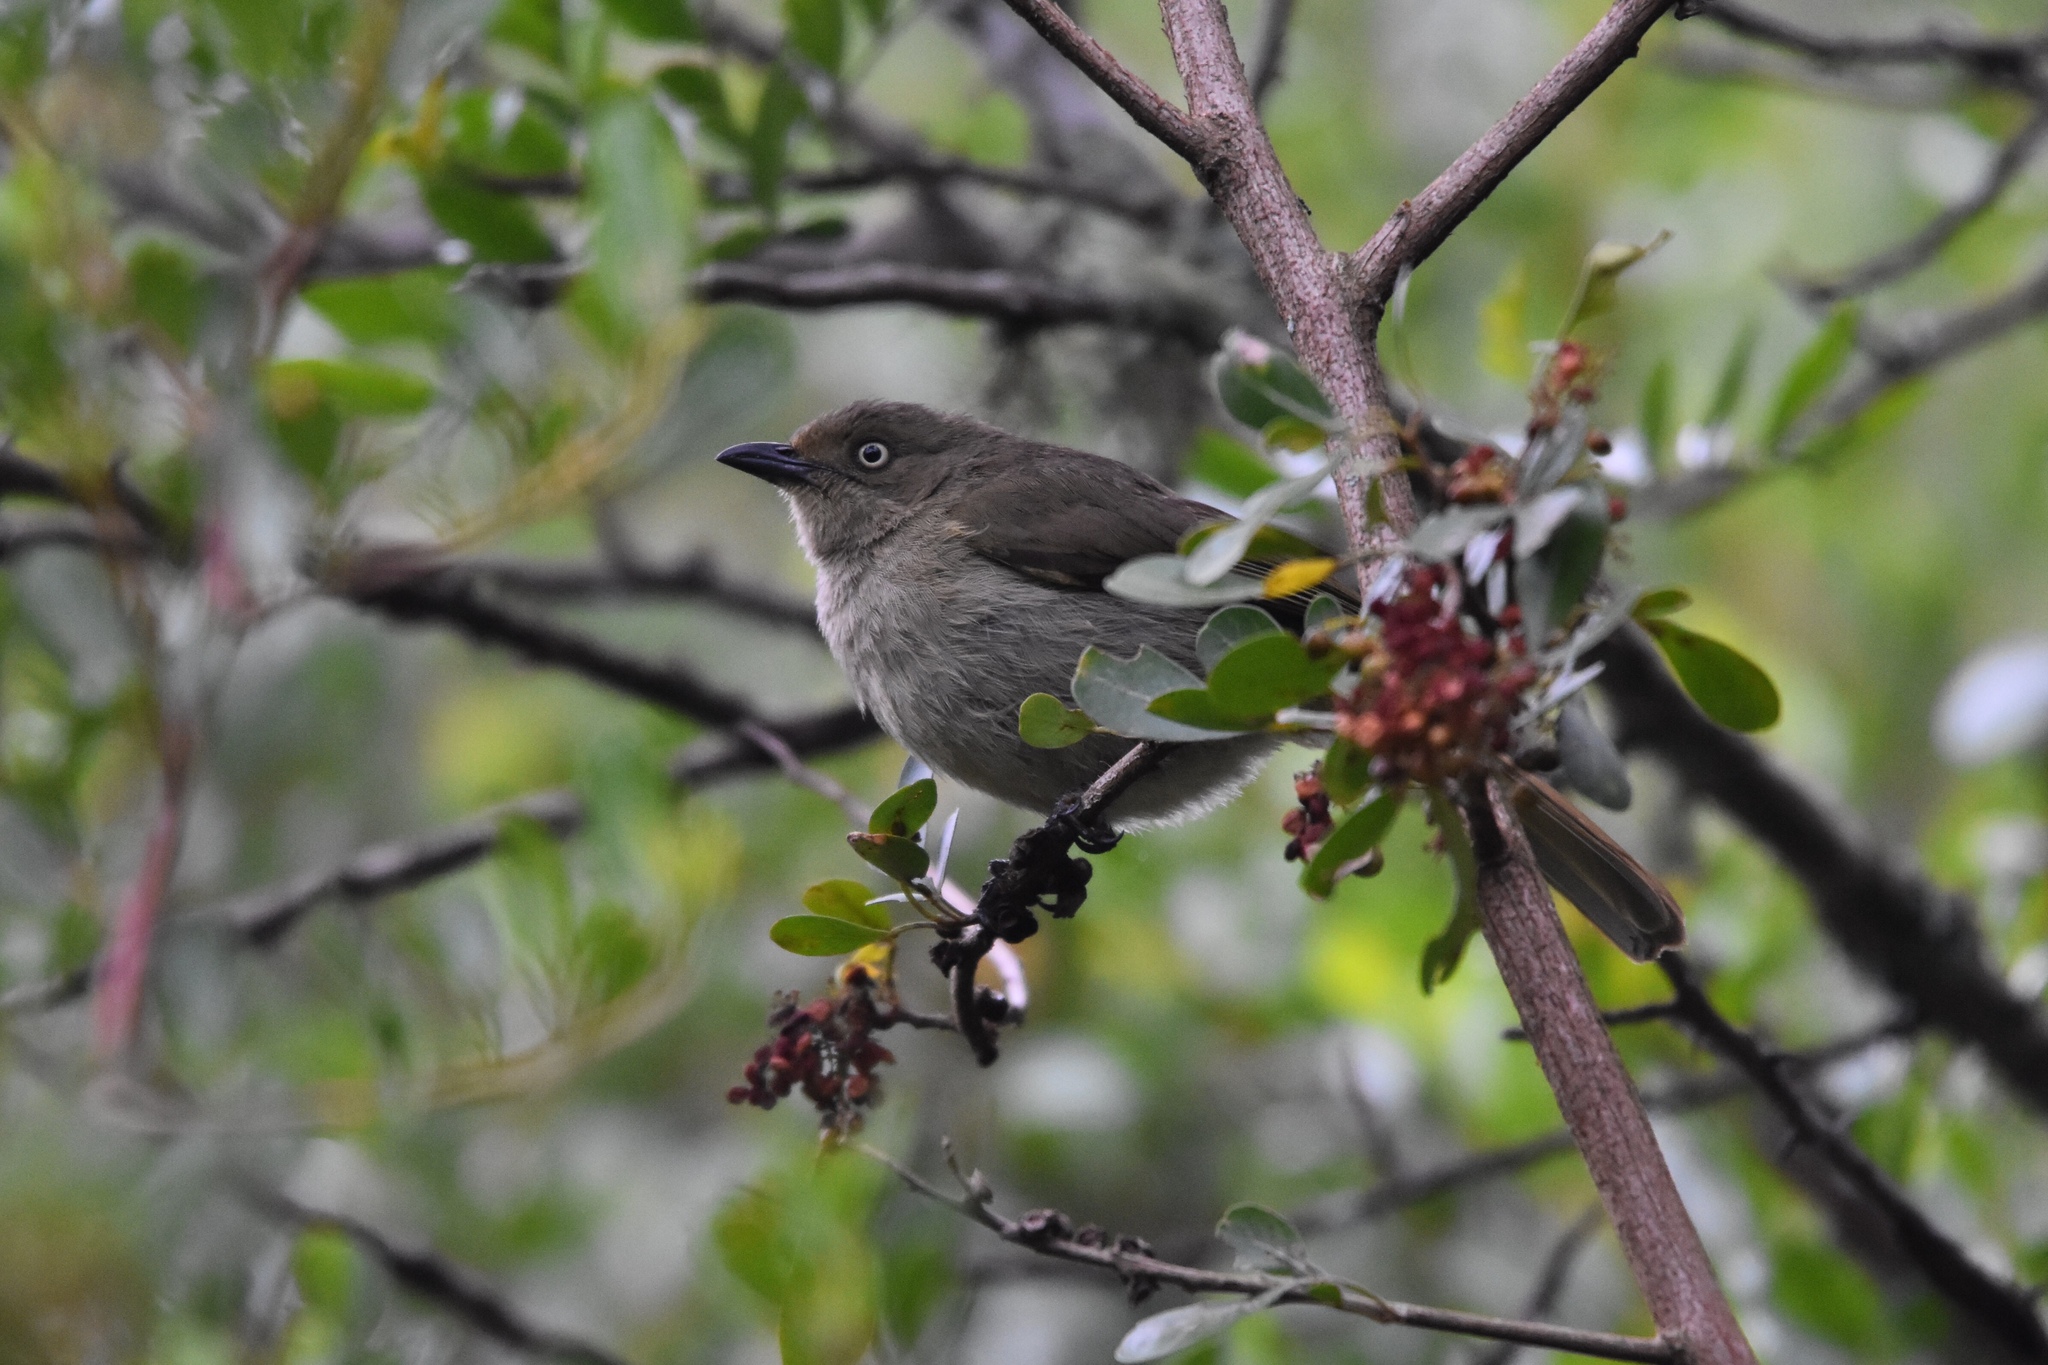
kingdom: Animalia
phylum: Chordata
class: Aves
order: Passeriformes
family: Pycnonotidae
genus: Andropadus
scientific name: Andropadus importunus
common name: Sombre greenbul
